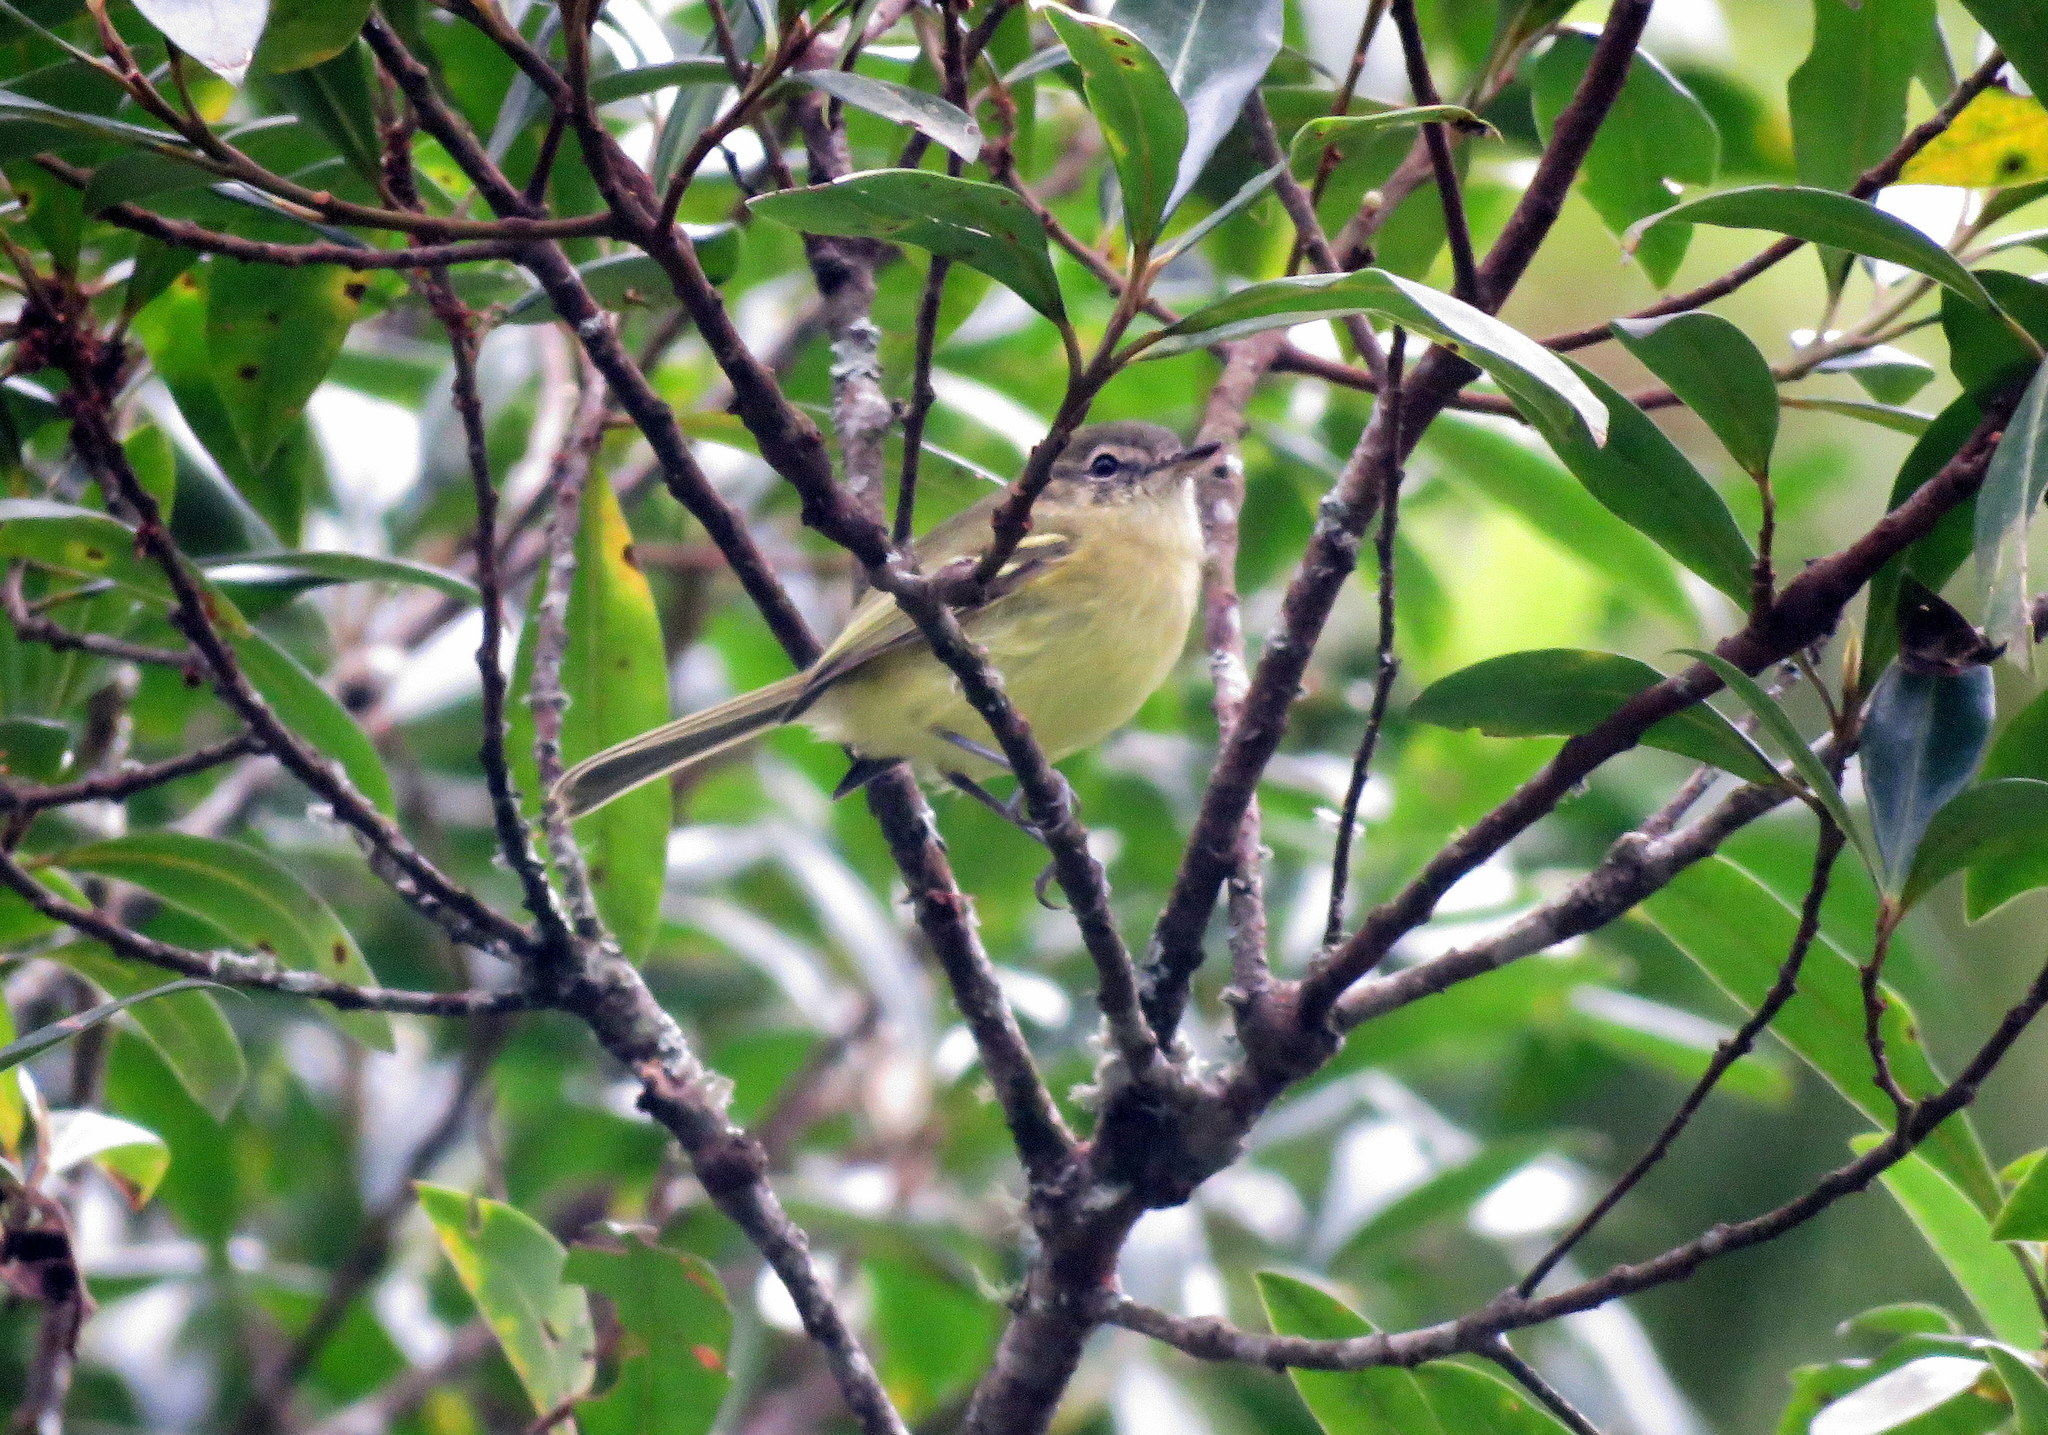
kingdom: Animalia
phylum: Chordata
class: Aves
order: Passeriformes
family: Tyrannidae
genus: Phylloscartes
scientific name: Phylloscartes ventralis
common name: Mottle-cheeked tyrannulet
